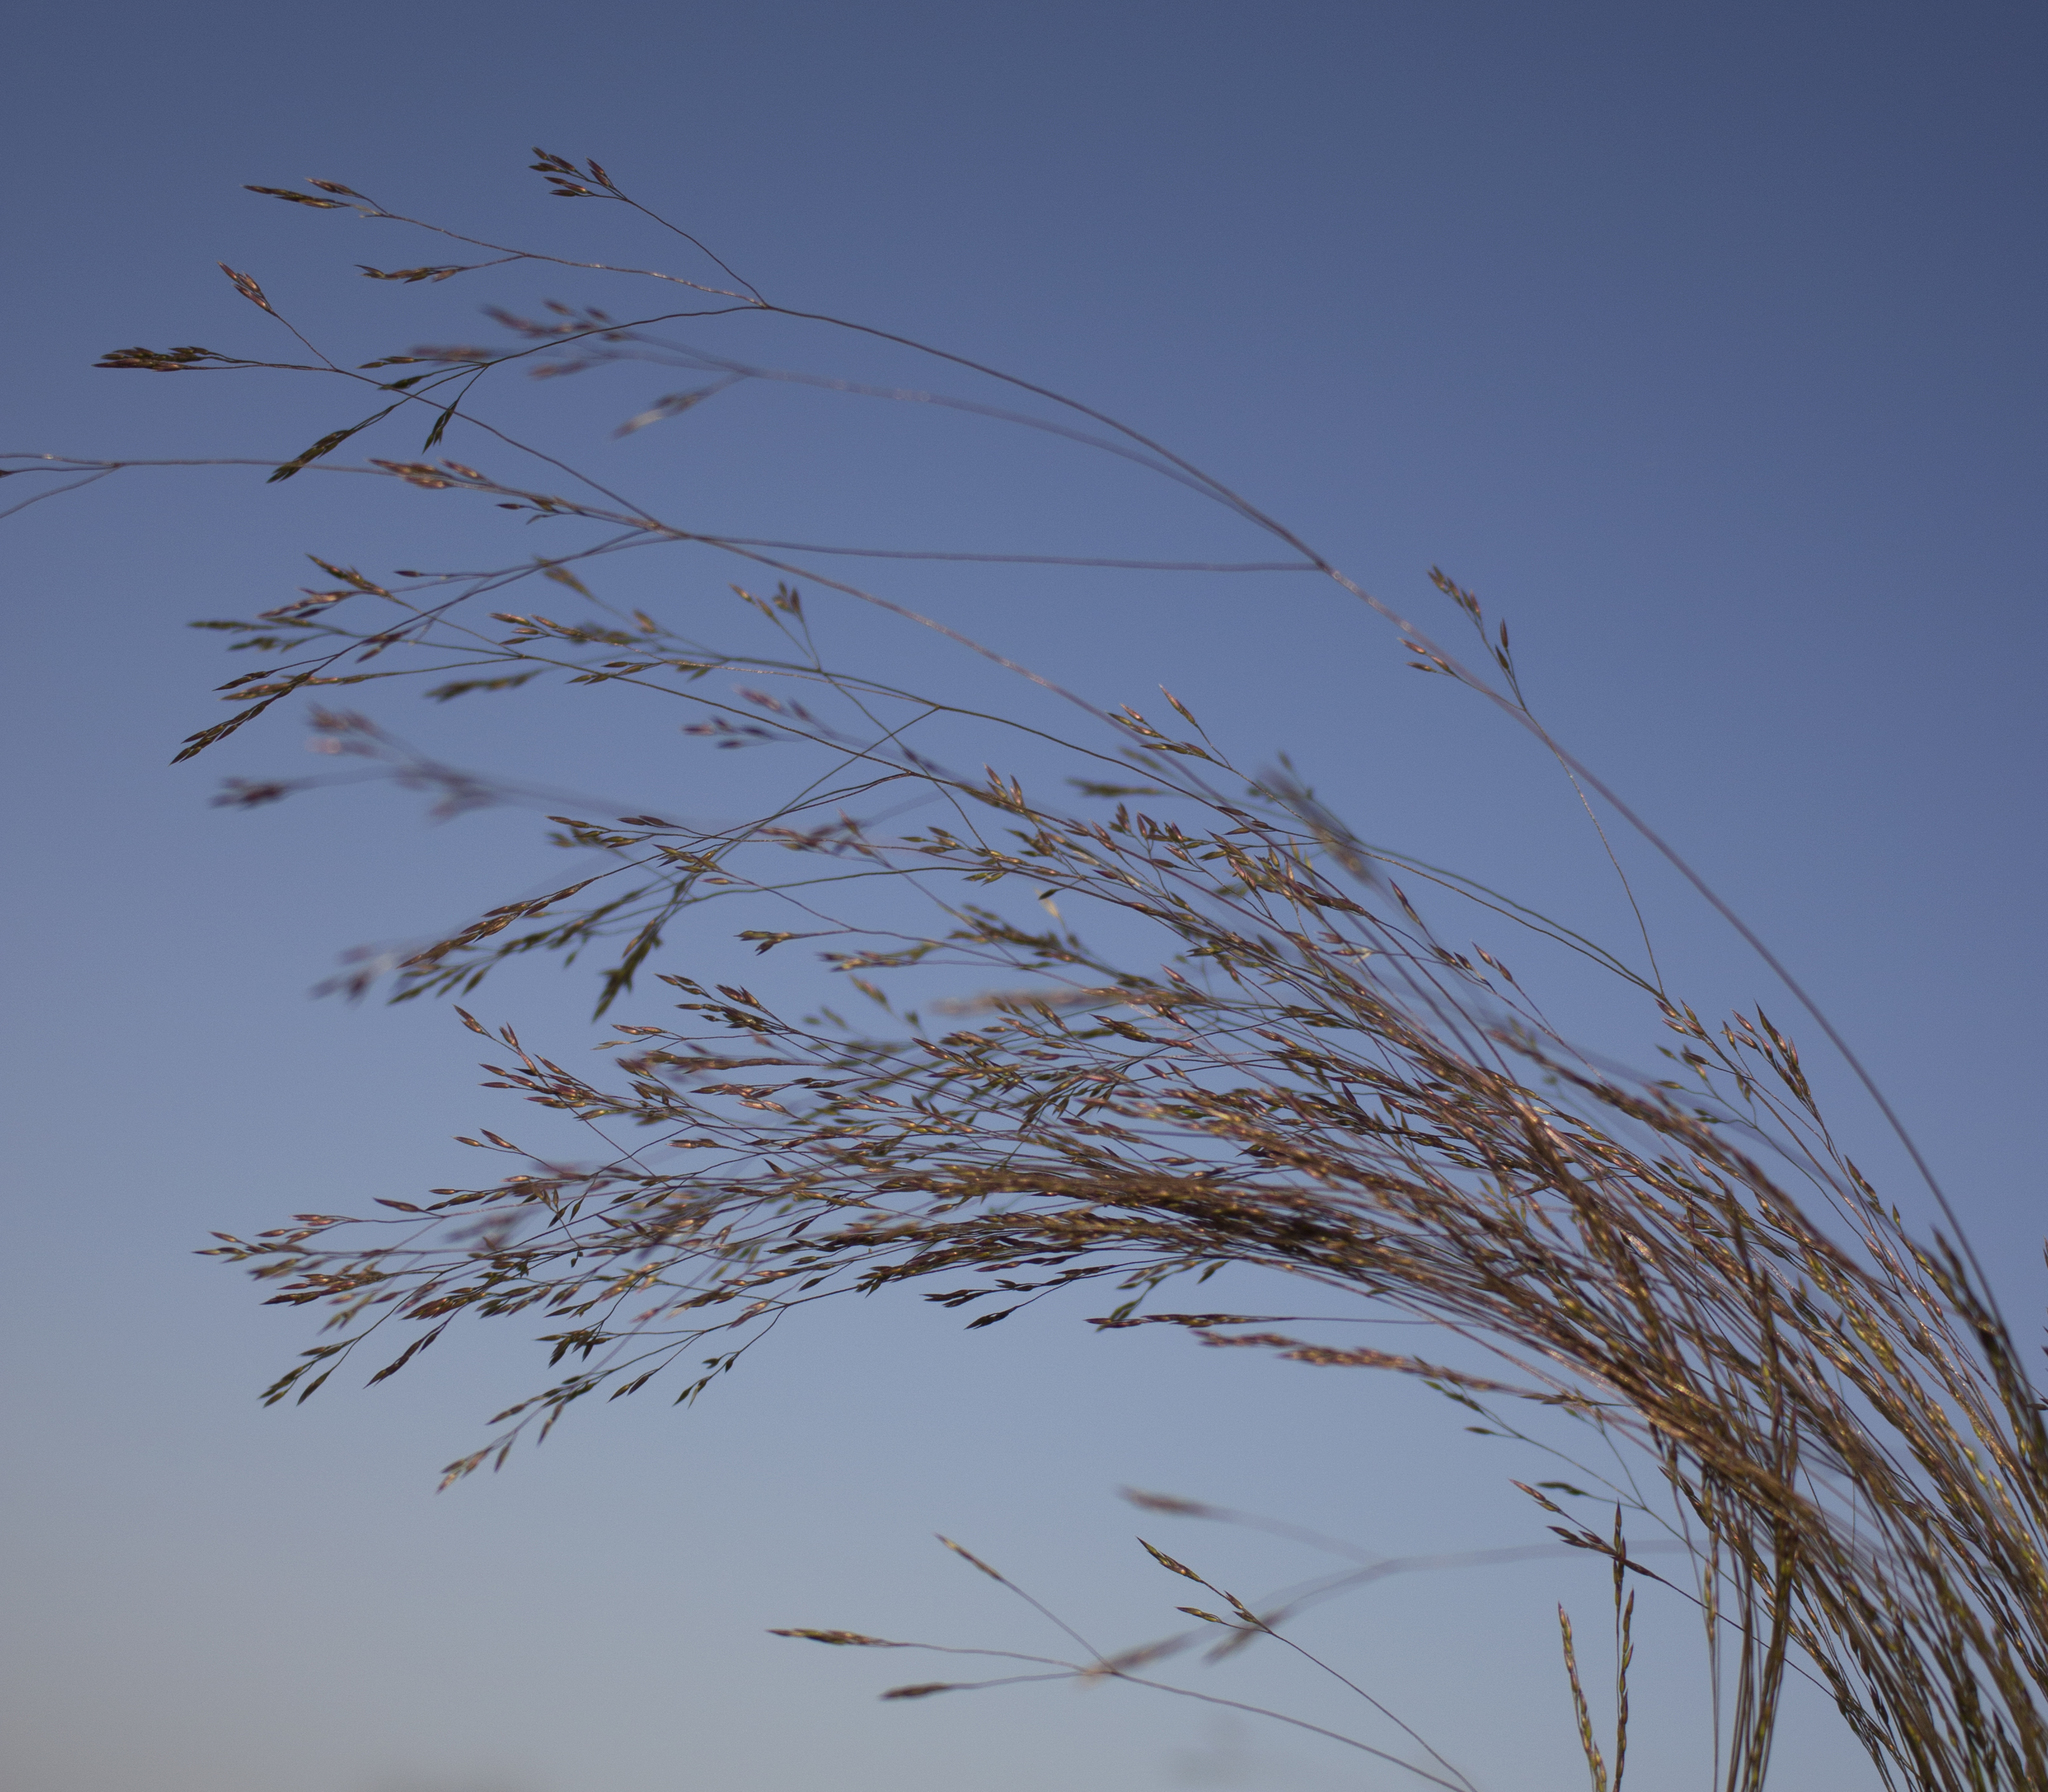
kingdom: Plantae
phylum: Tracheophyta
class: Liliopsida
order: Poales
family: Poaceae
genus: Agrostis
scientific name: Agrostis hyemalis
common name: Small bent
